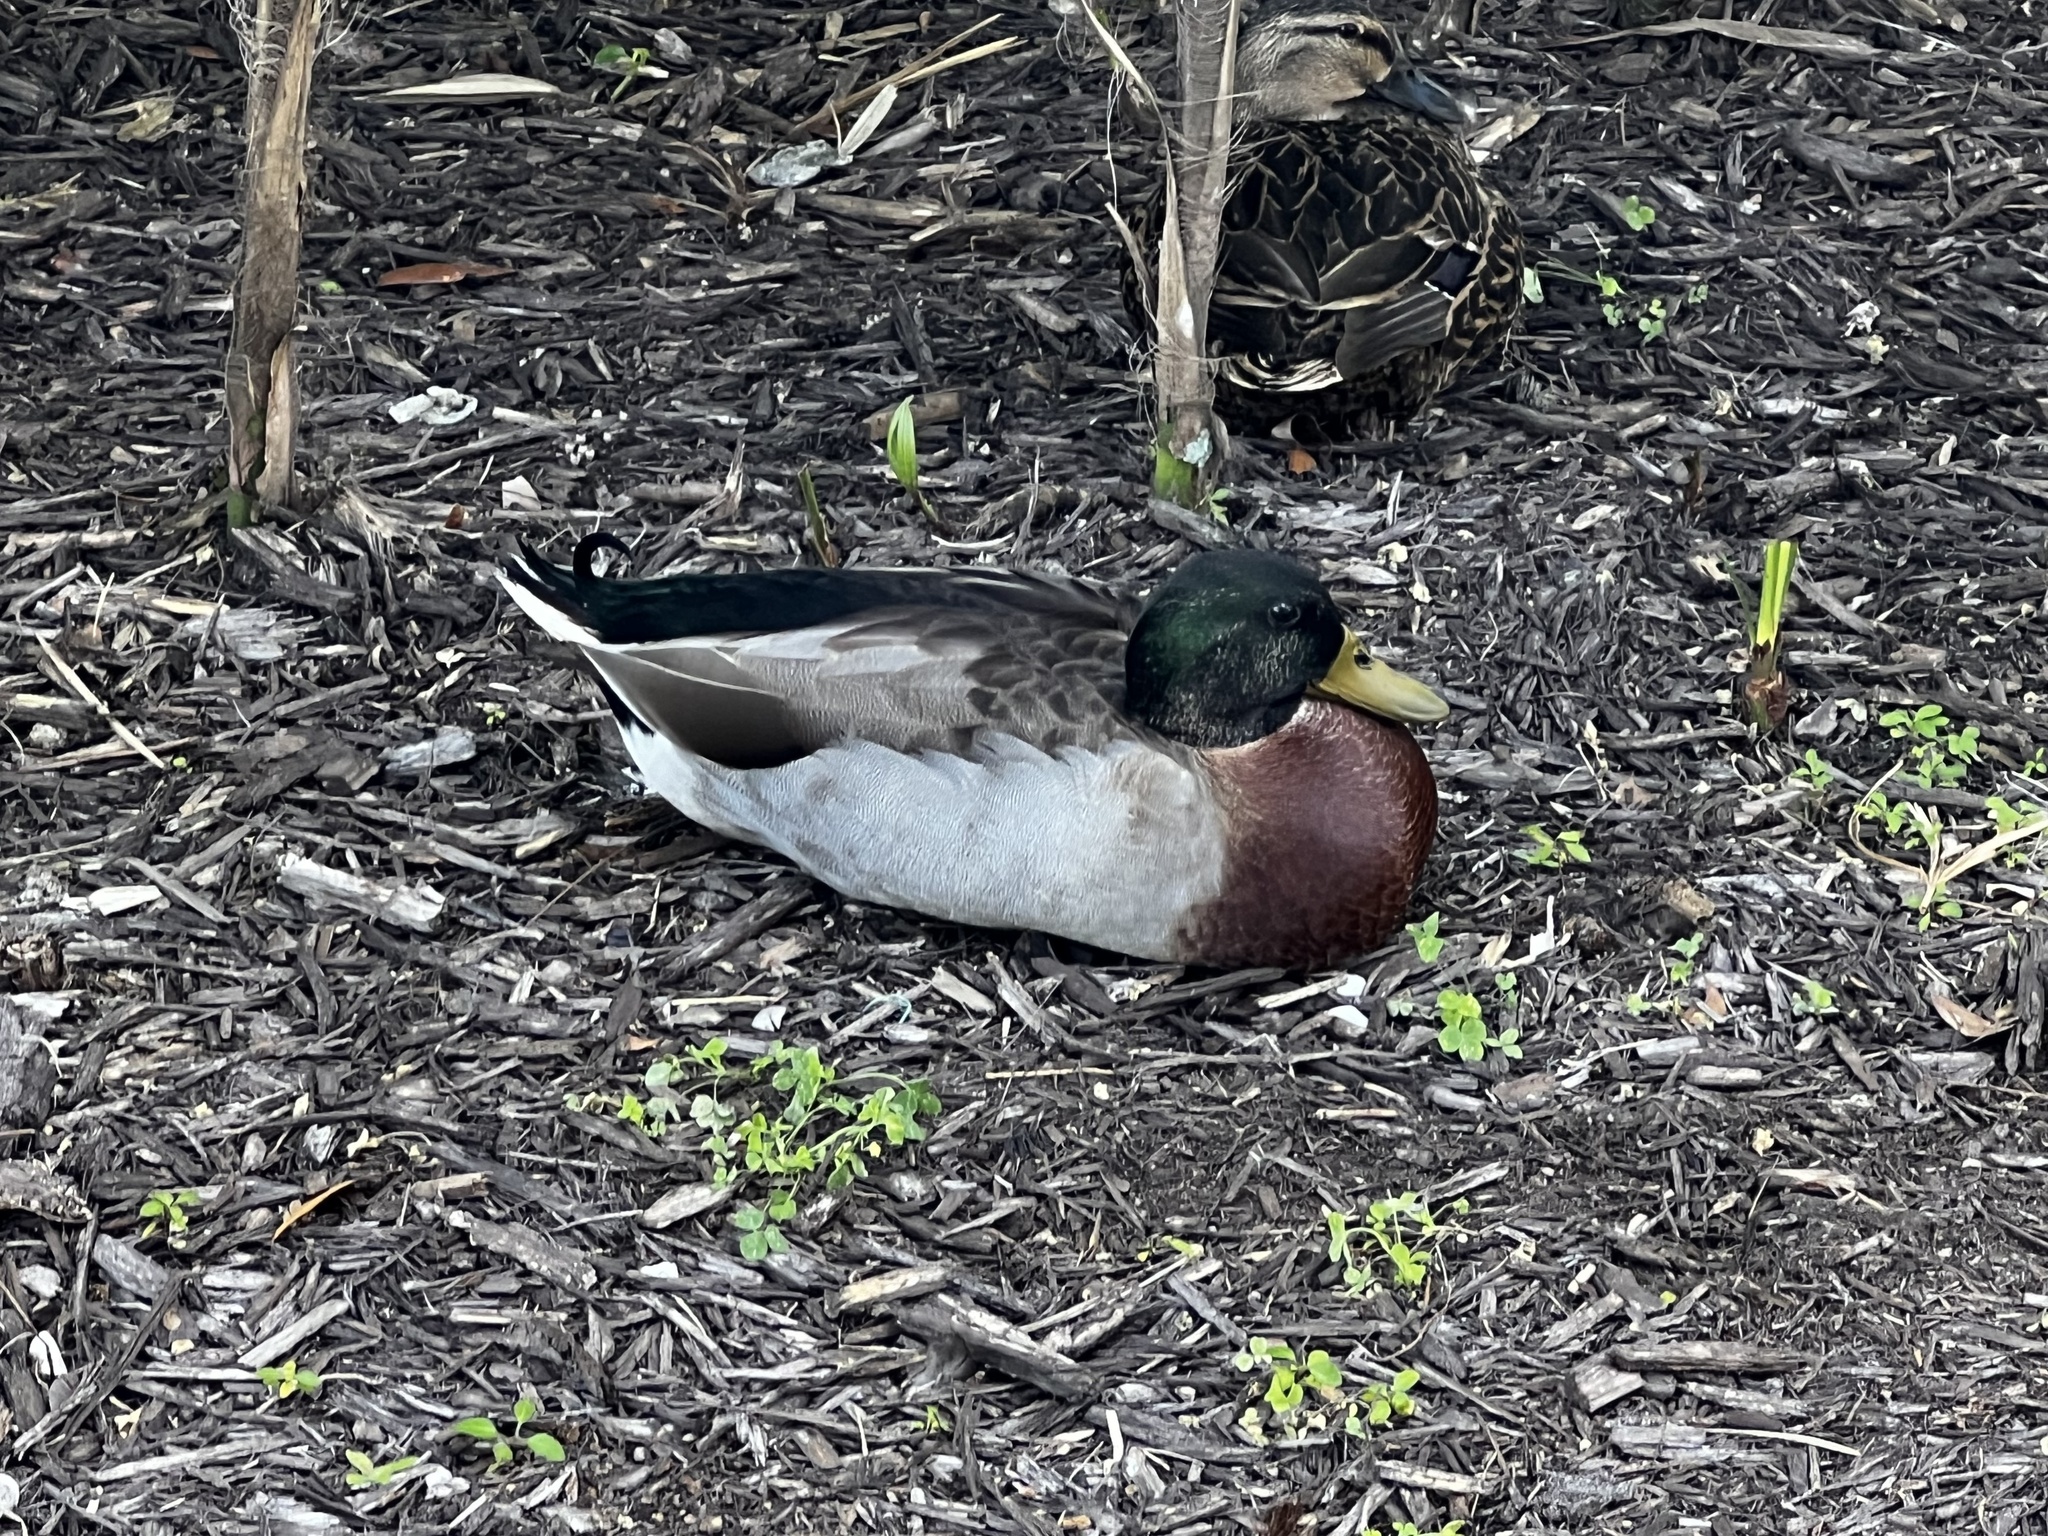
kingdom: Animalia
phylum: Chordata
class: Aves
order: Anseriformes
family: Anatidae
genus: Anas
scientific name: Anas platyrhynchos
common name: Mallard
